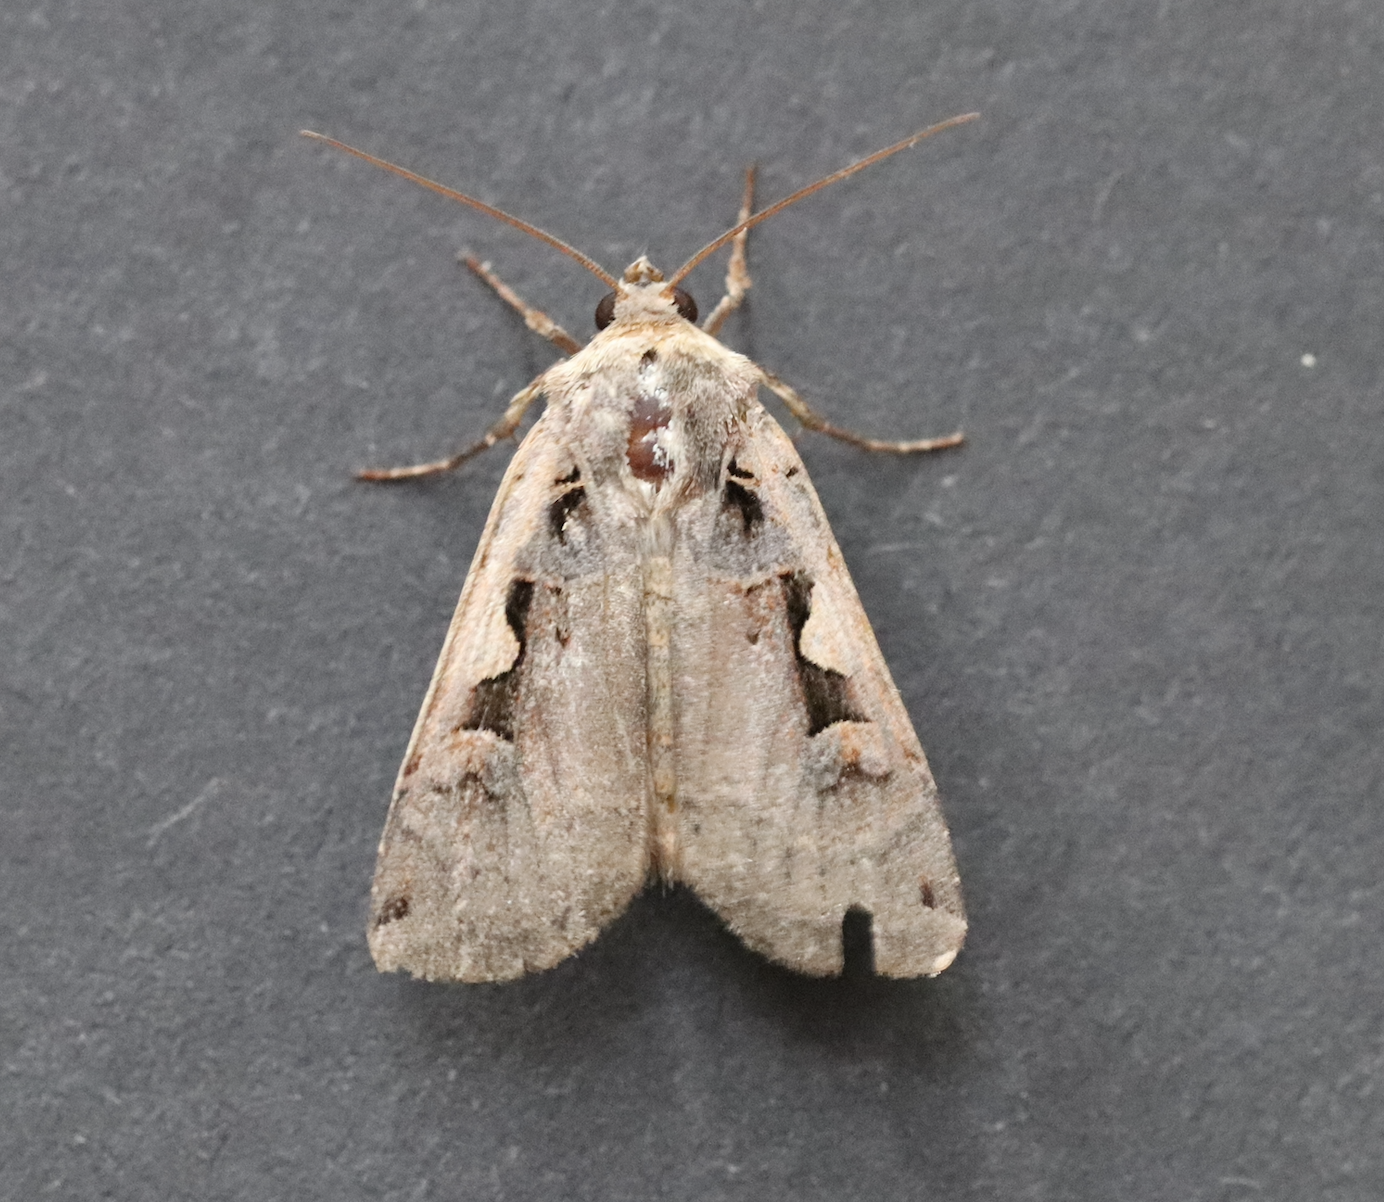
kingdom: Animalia
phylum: Arthropoda
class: Insecta
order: Lepidoptera
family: Noctuidae
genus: Xestia
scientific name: Xestia c-nigrum
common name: Setaceous hebrew character
